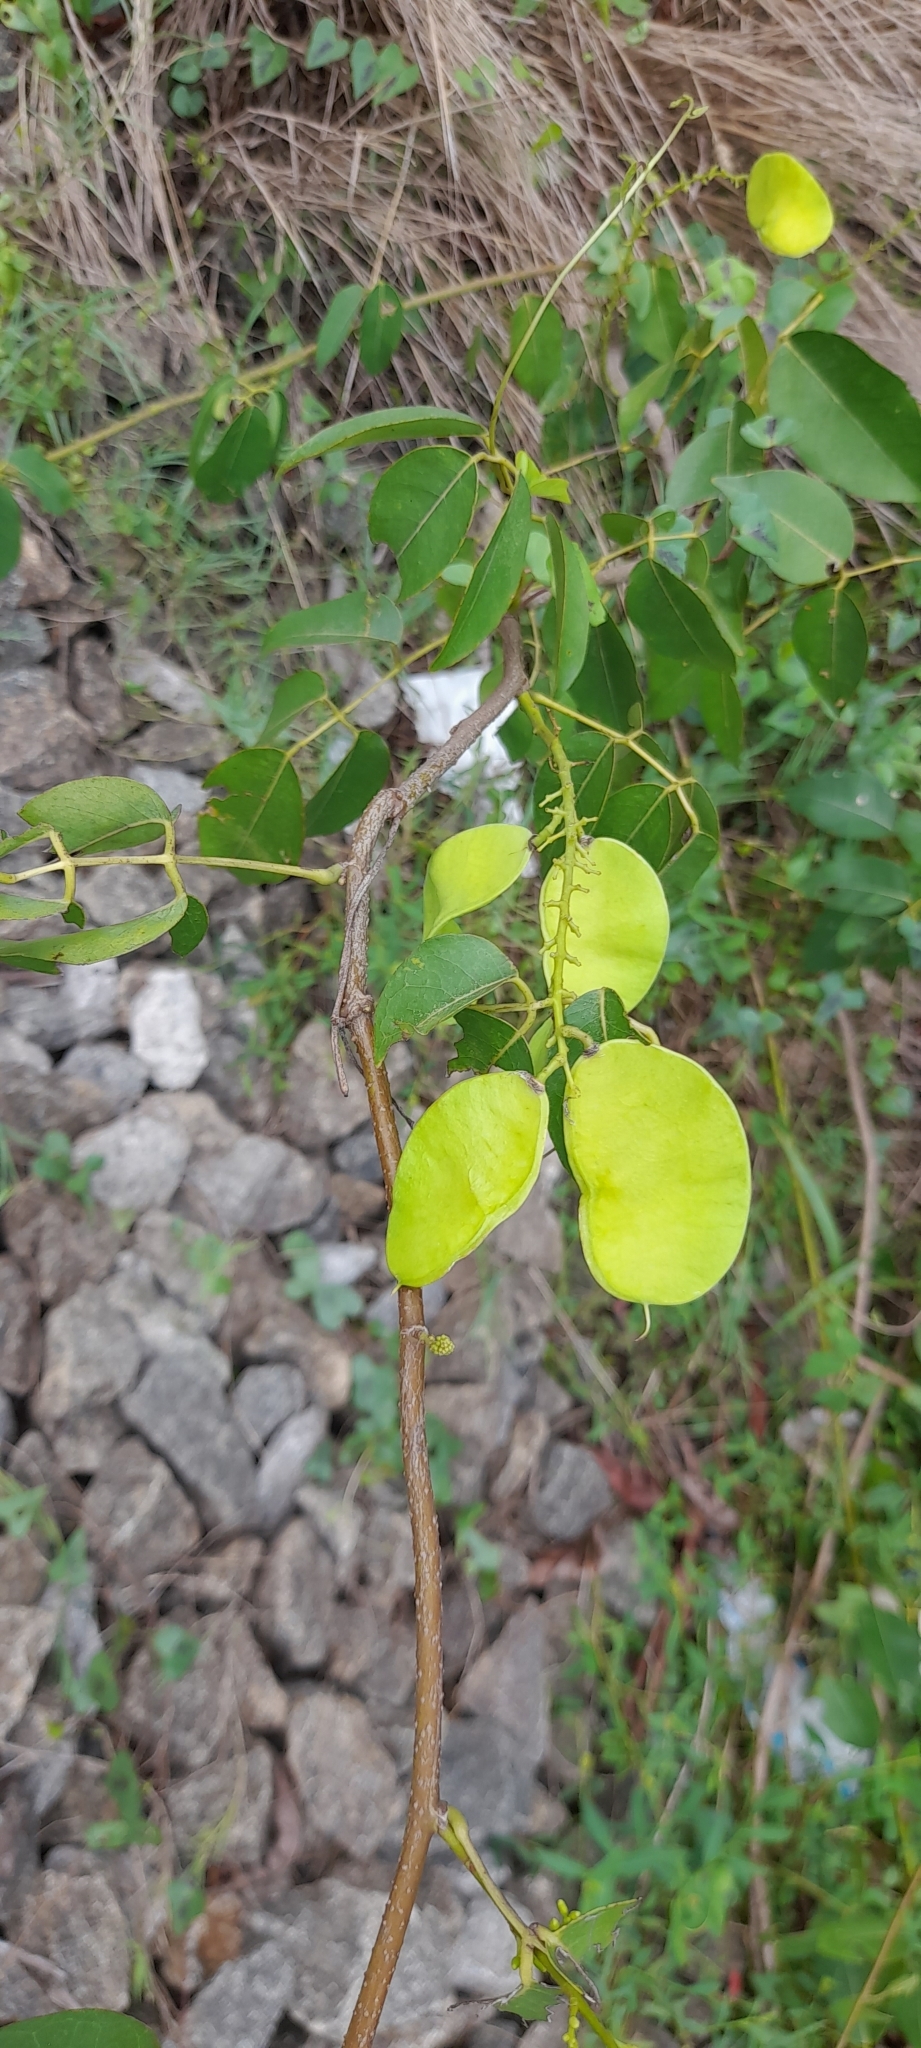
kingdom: Plantae
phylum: Tracheophyta
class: Magnoliopsida
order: Fabales
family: Fabaceae
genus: Derris
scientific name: Derris trifoliata
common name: Three-leaf derris
